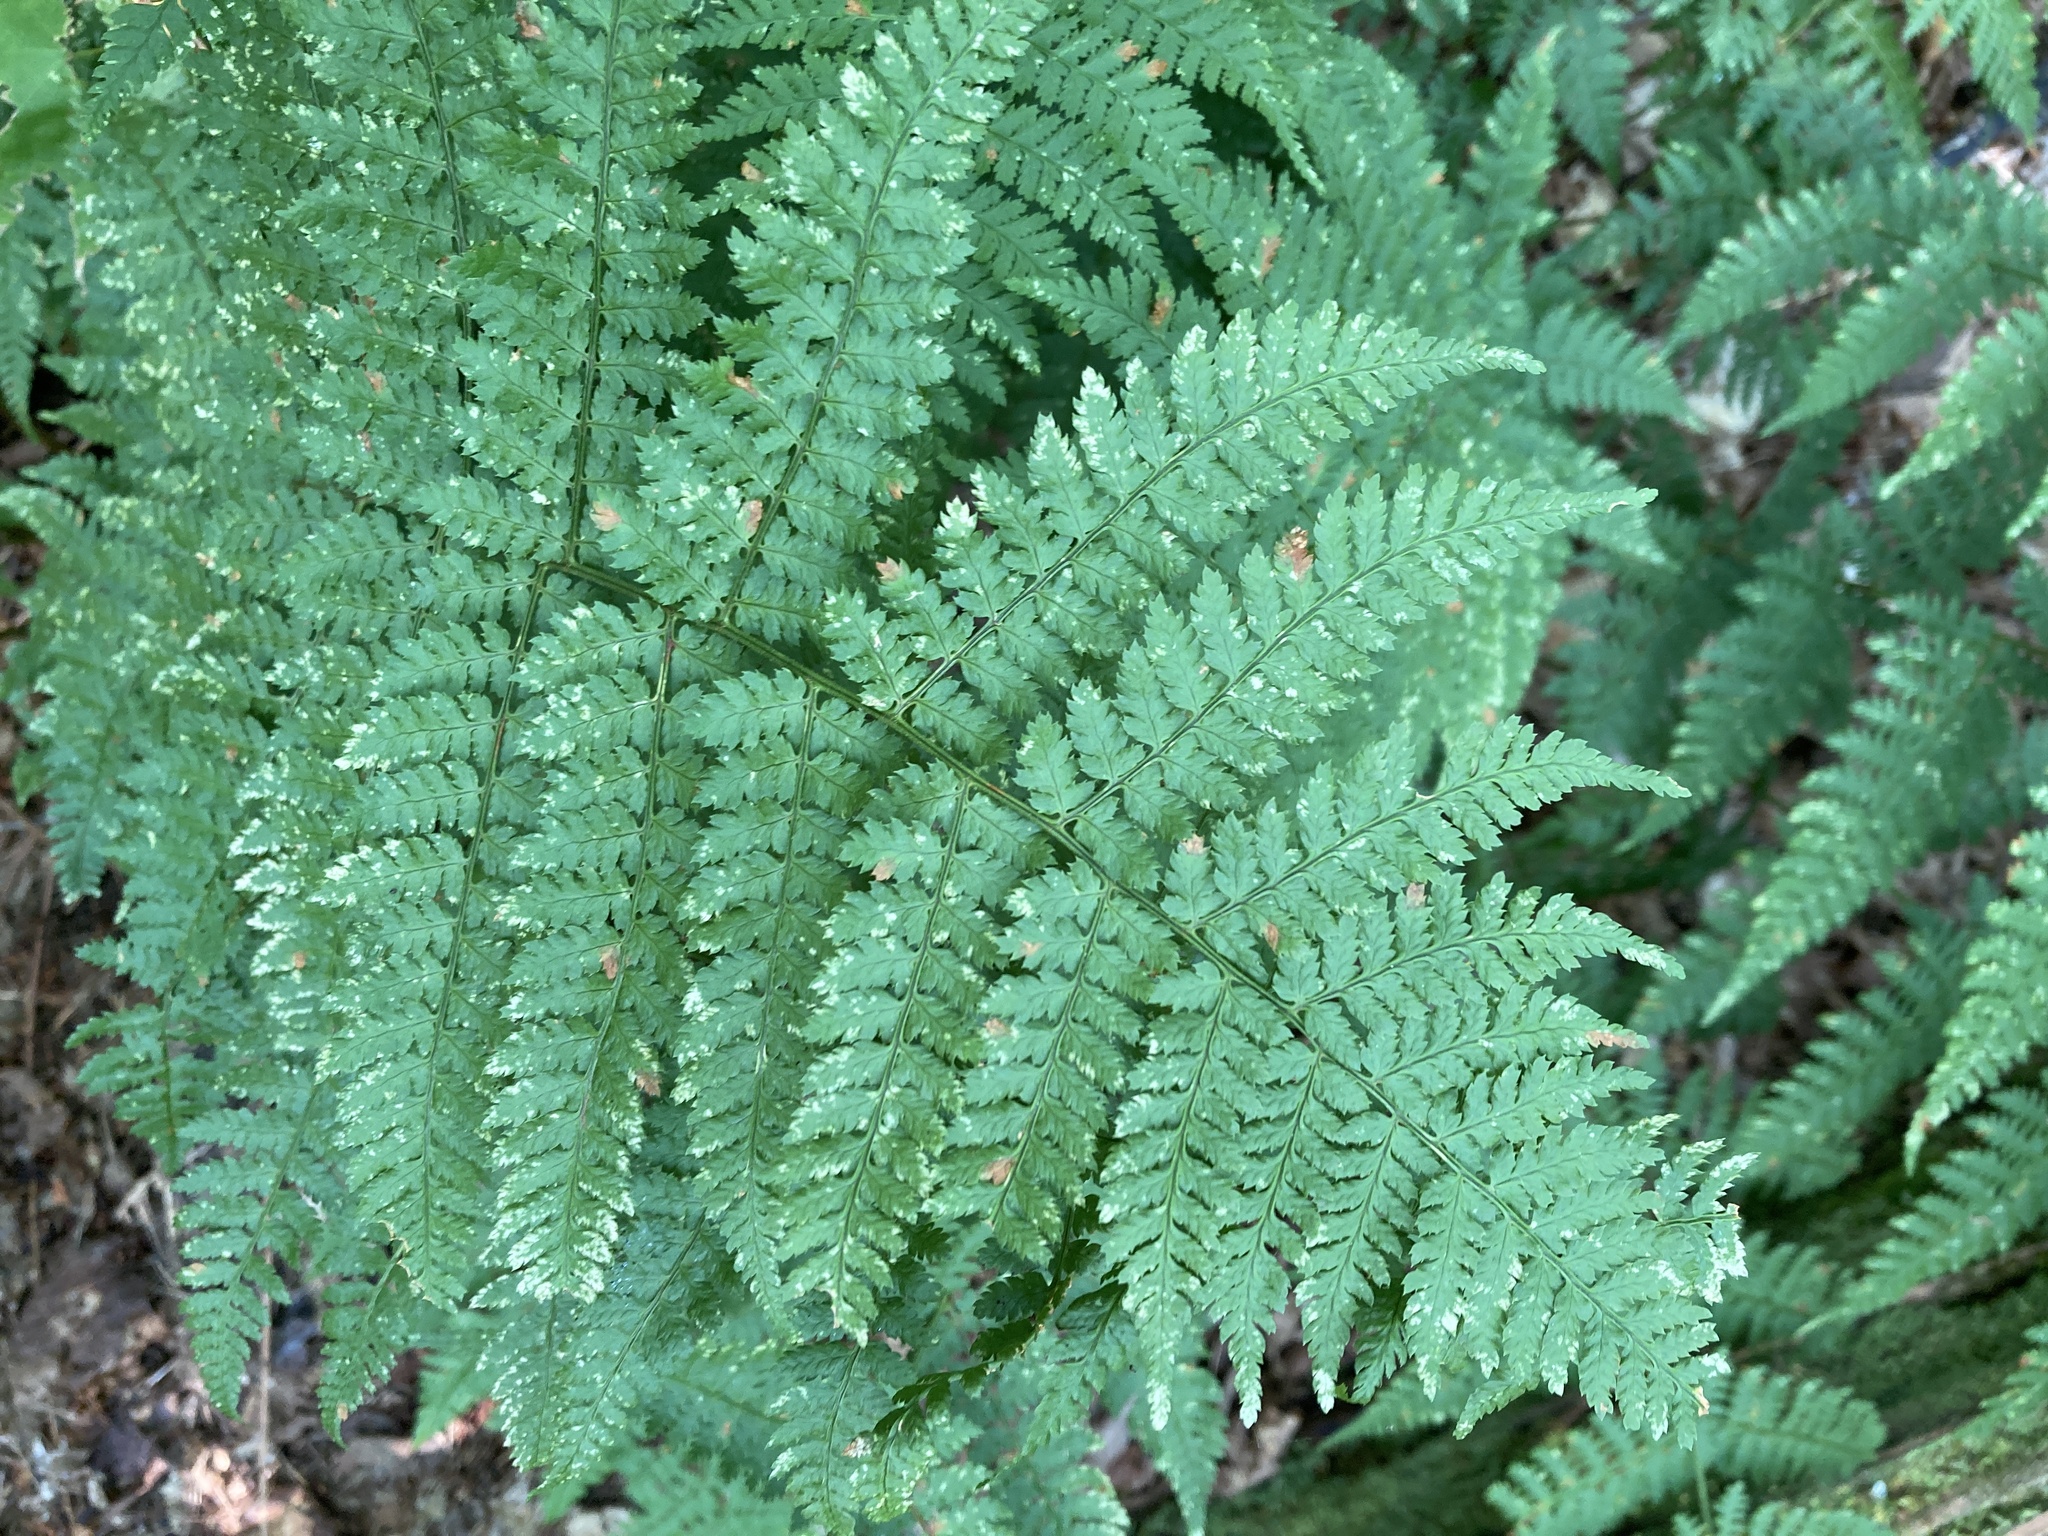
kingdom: Plantae
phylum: Tracheophyta
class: Polypodiopsida
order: Polypodiales
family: Dryopteridaceae
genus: Dryopteris
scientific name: Dryopteris intermedia
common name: Evergreen wood fern
